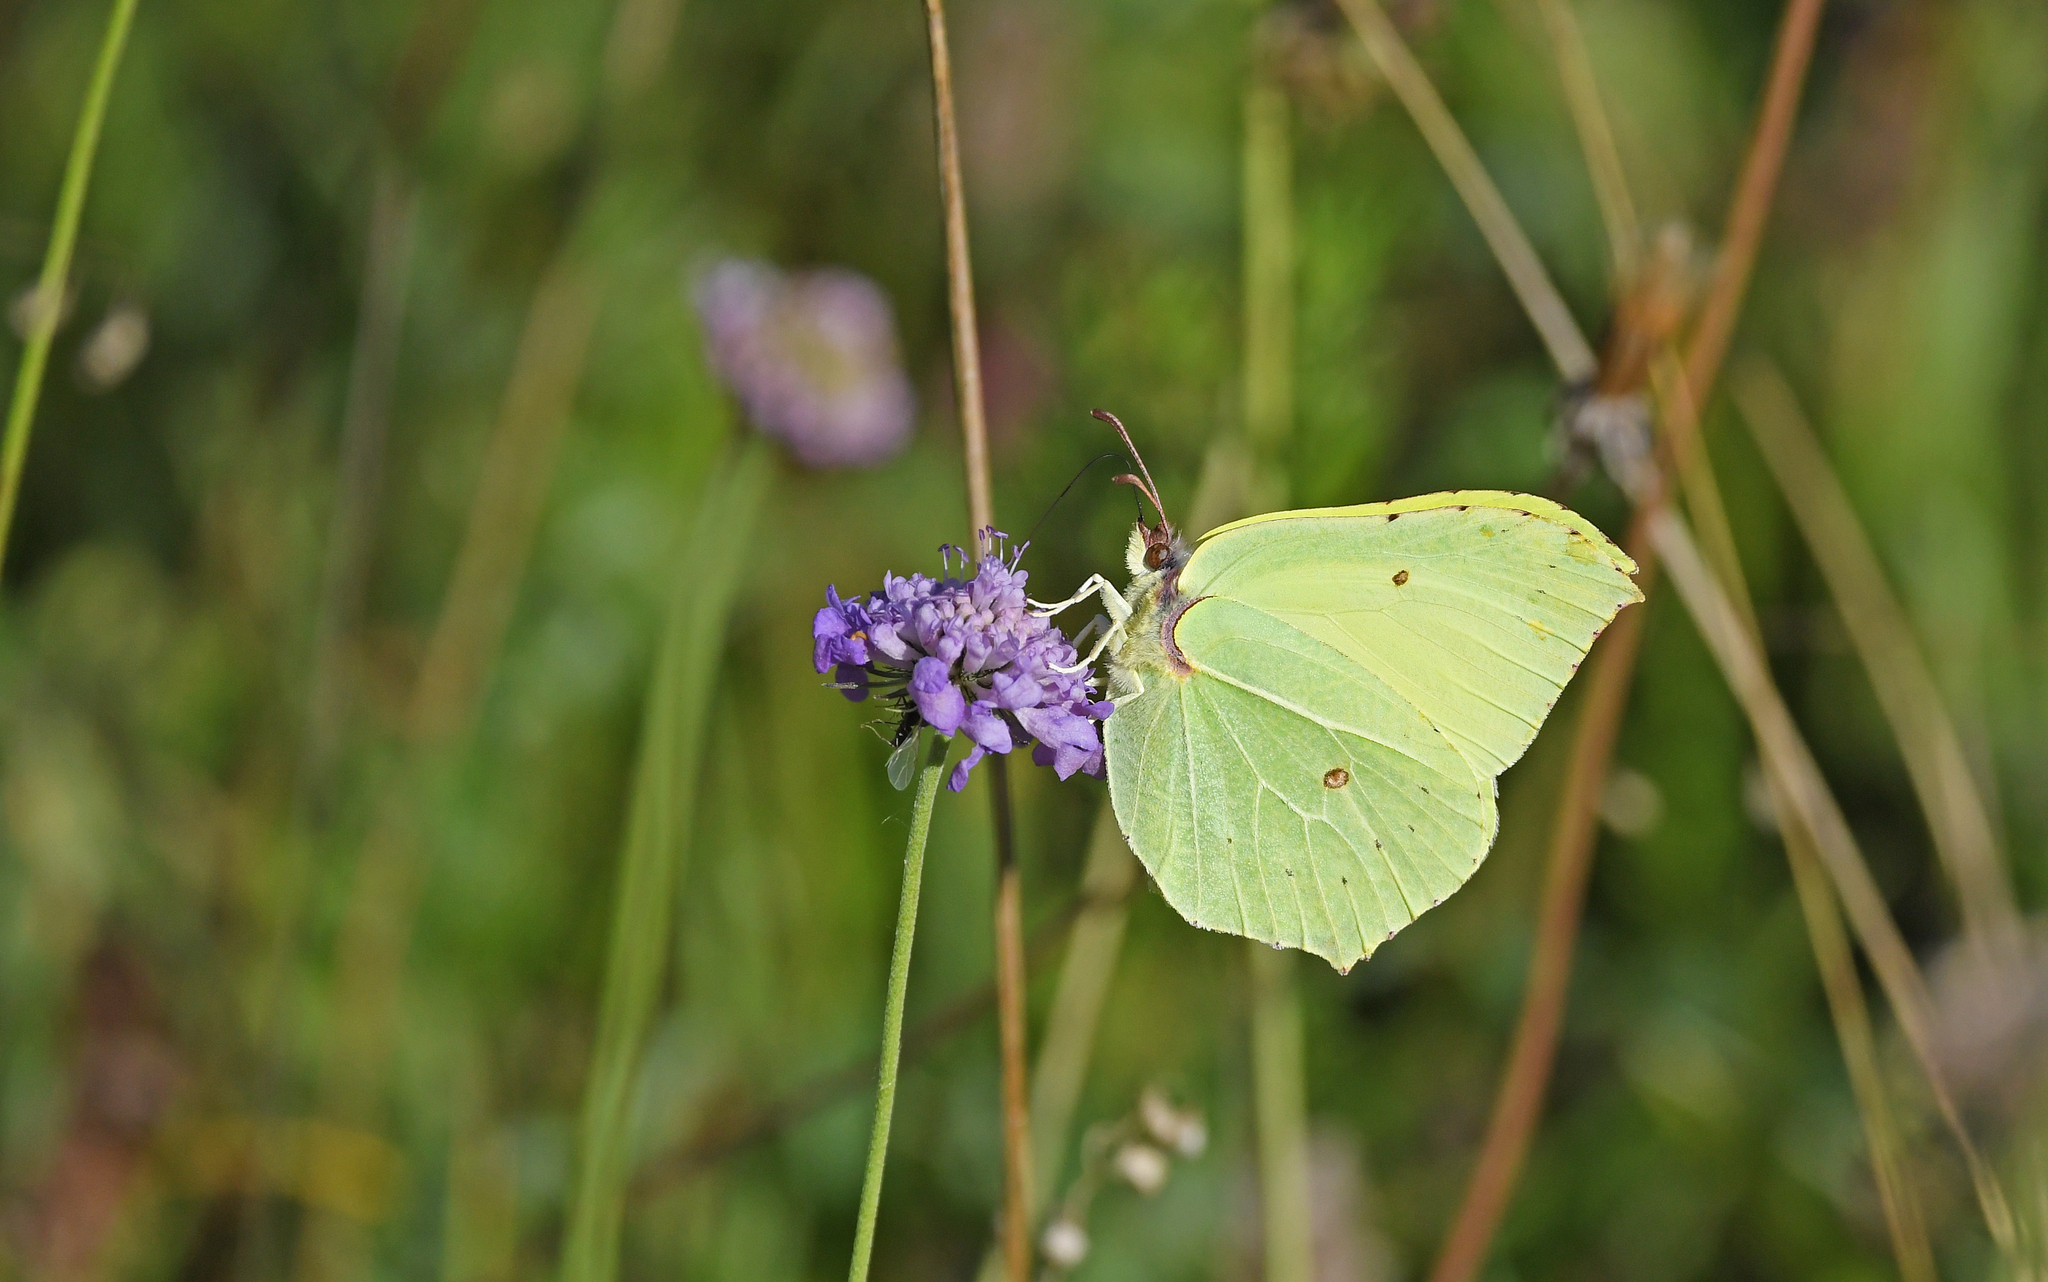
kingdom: Animalia
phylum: Arthropoda
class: Insecta
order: Lepidoptera
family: Pieridae
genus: Gonepteryx
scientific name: Gonepteryx rhamni
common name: Brimstone
